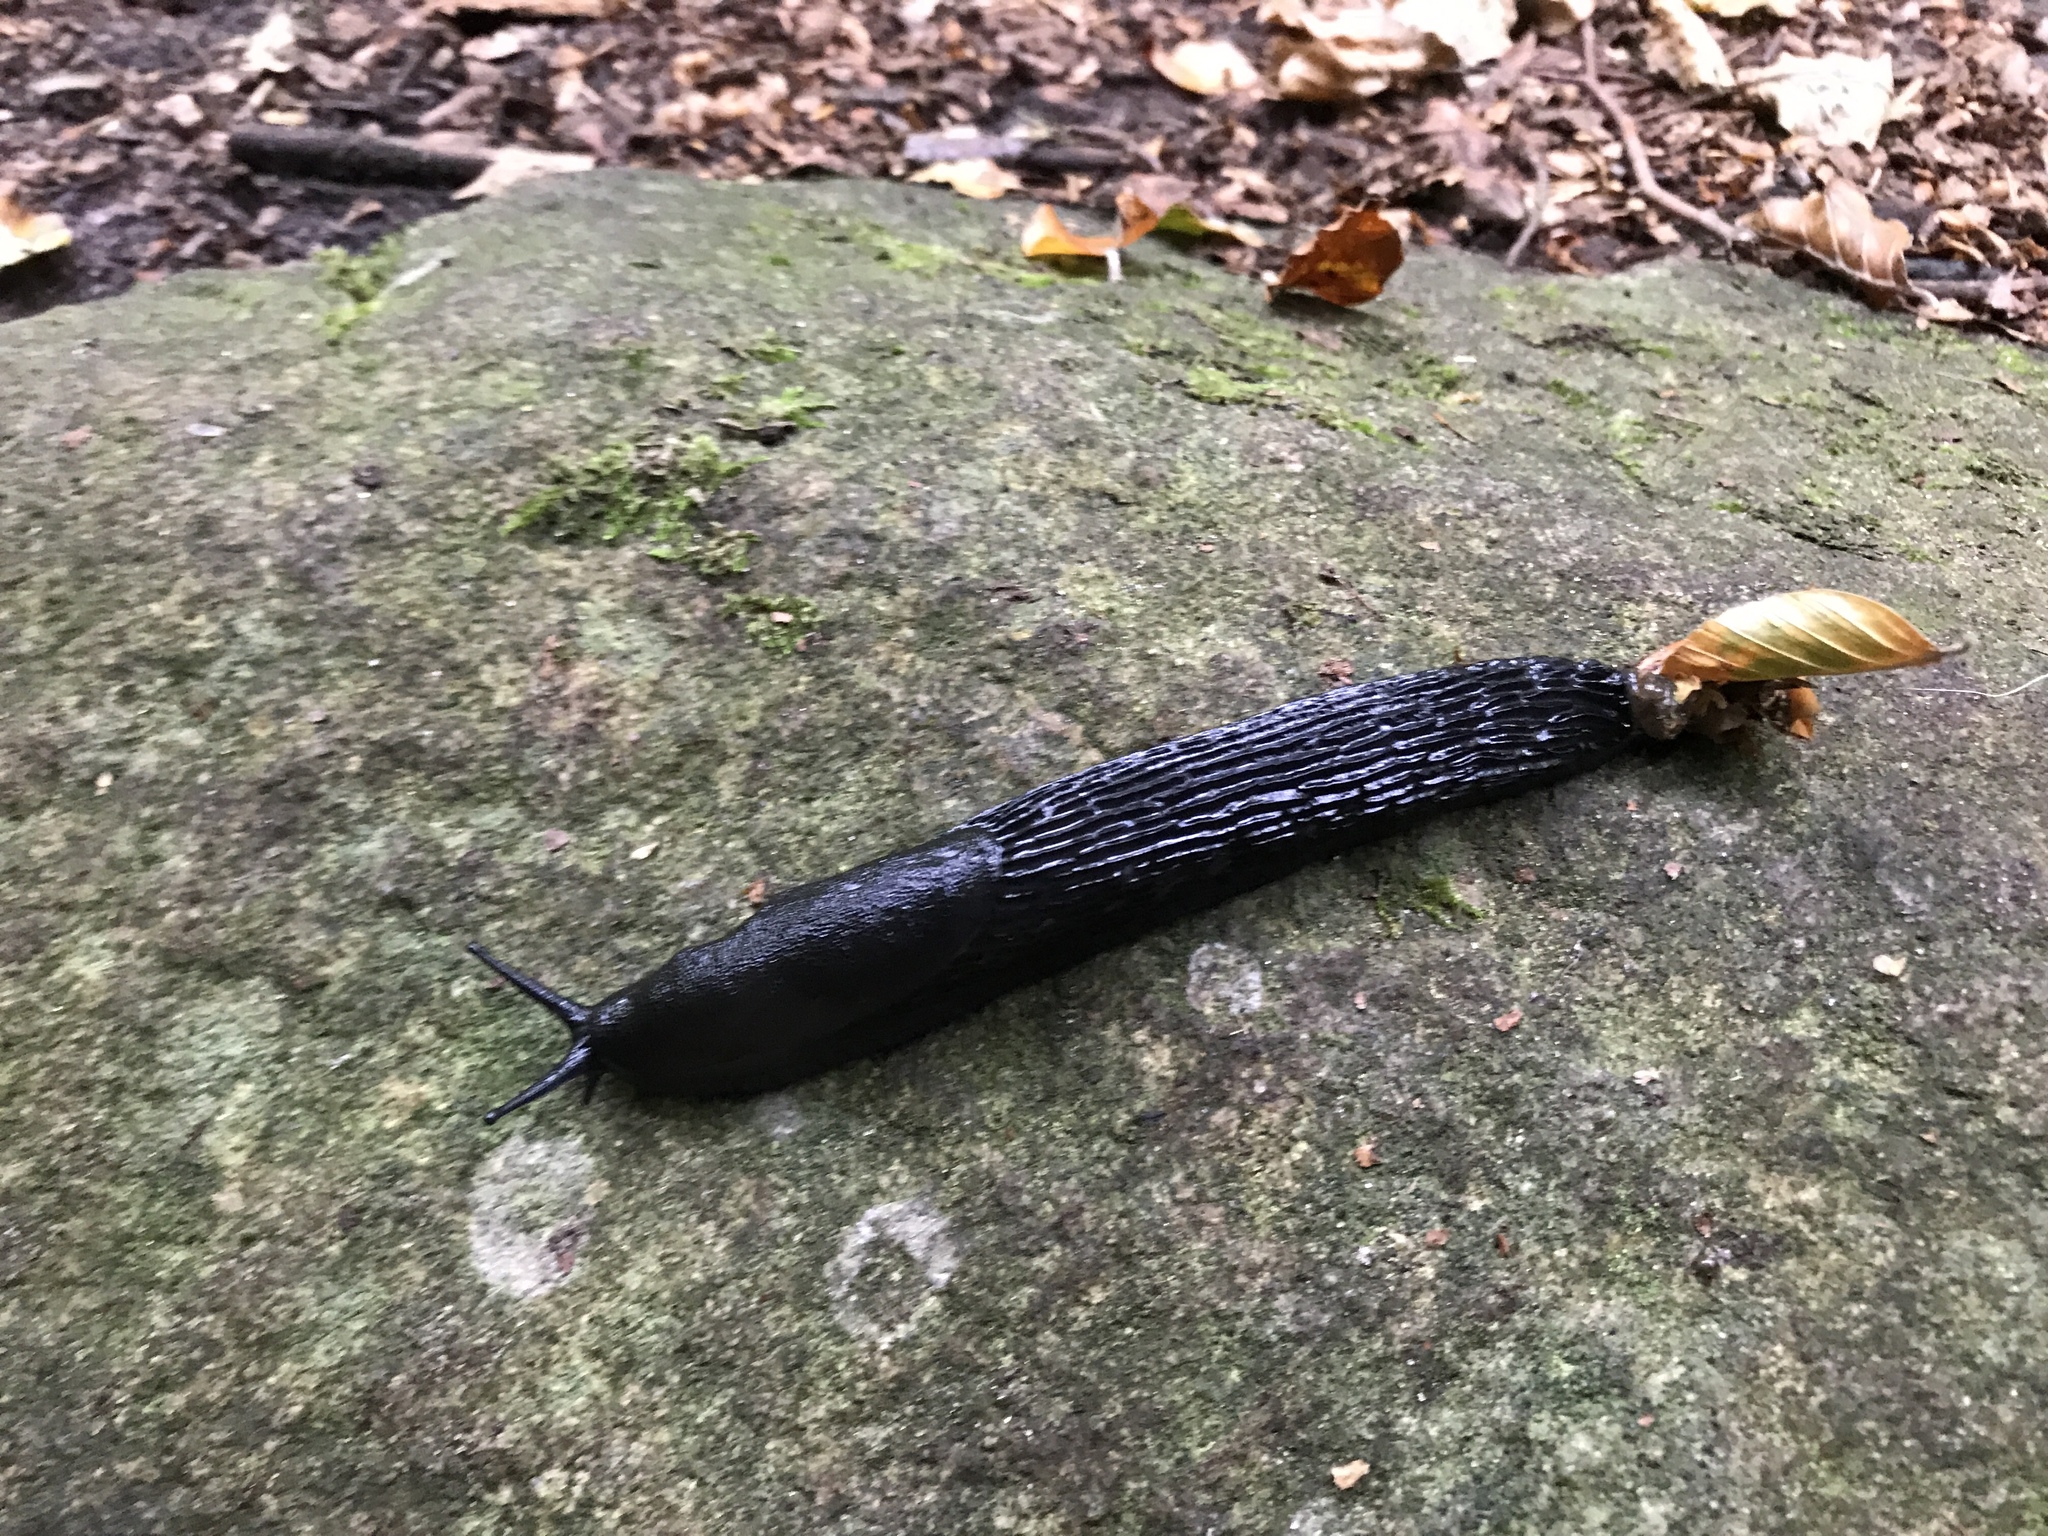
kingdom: Animalia
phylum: Mollusca
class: Gastropoda
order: Stylommatophora
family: Arionidae
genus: Arion
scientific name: Arion ater
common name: Black arion
